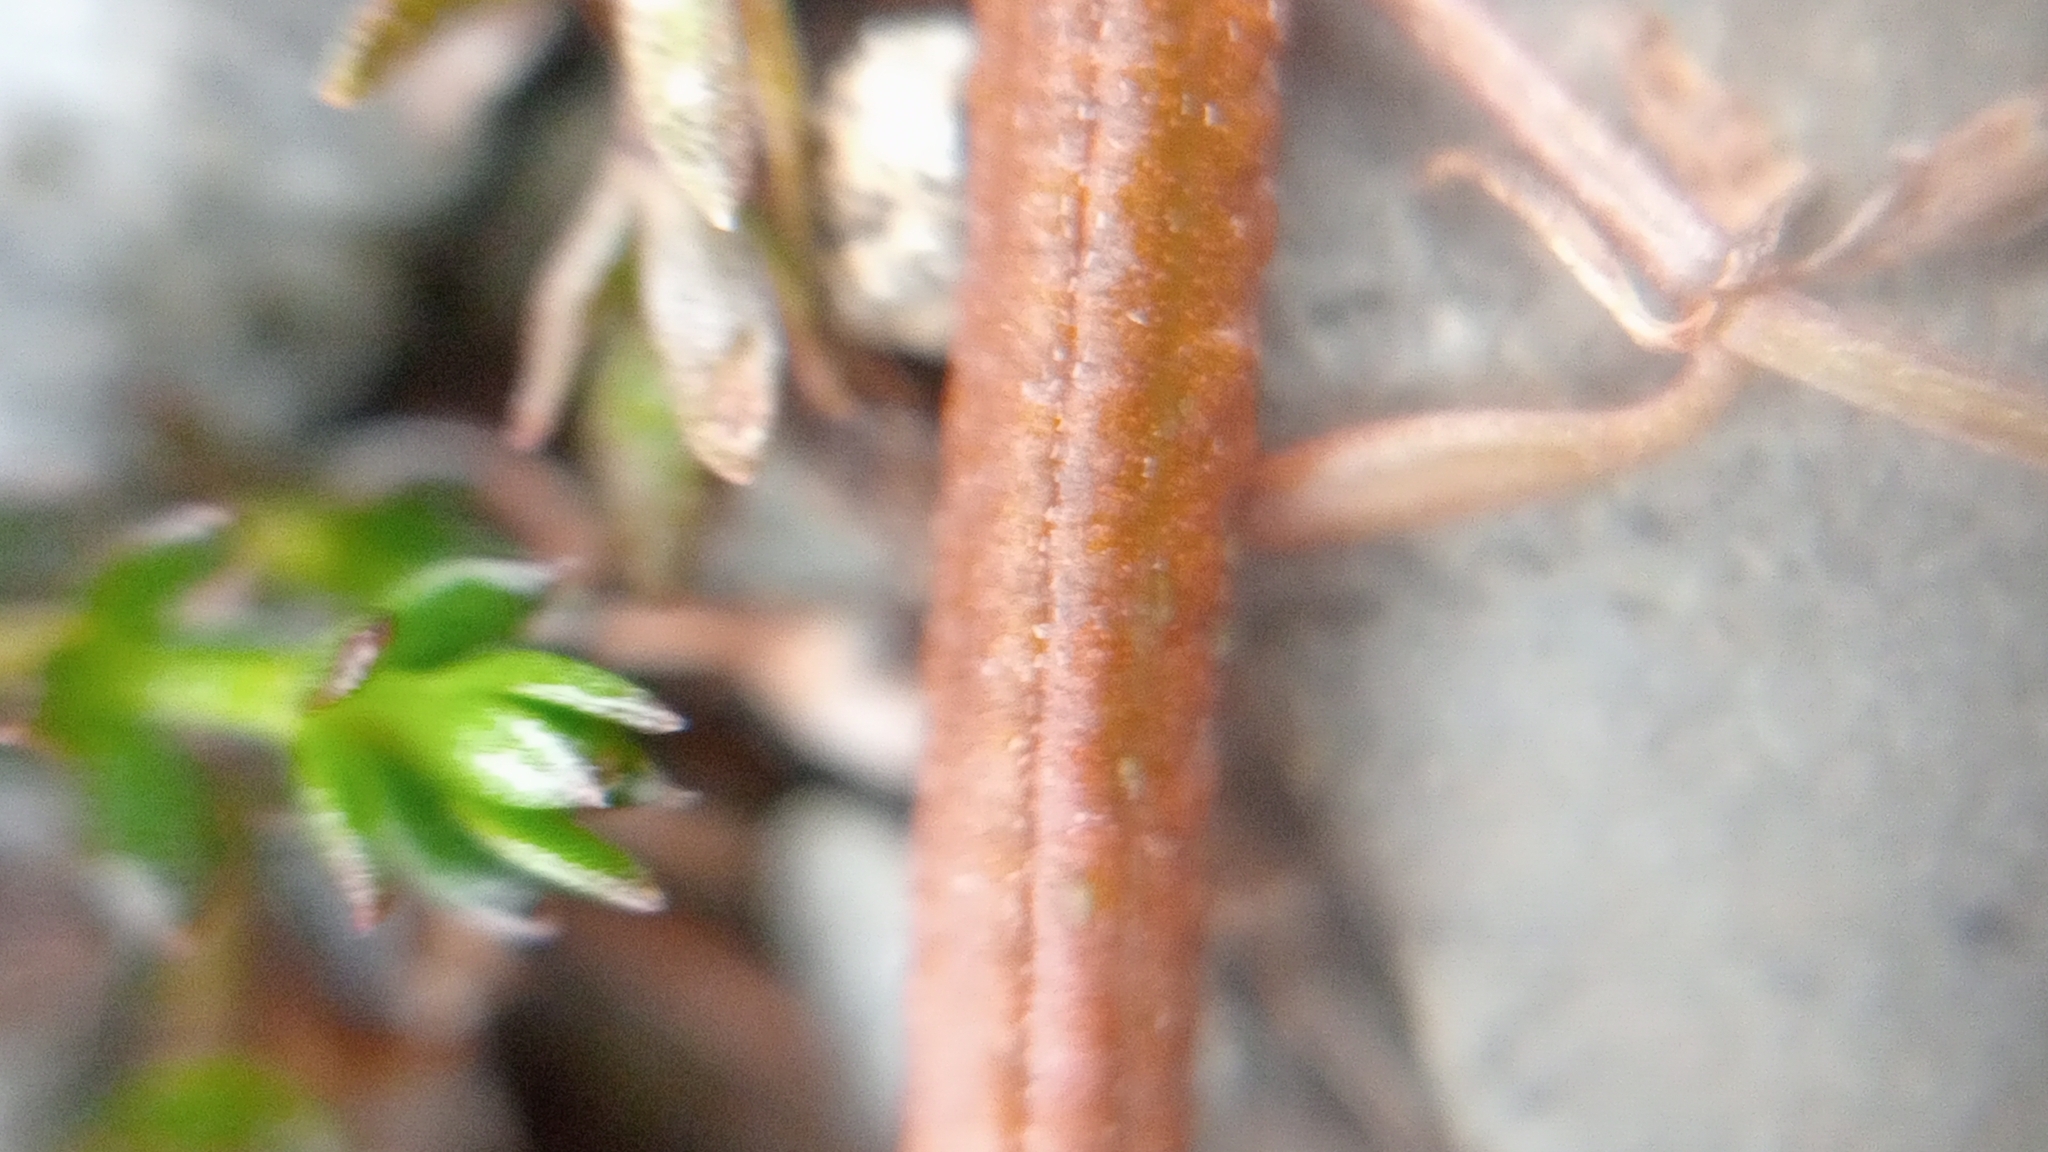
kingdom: Plantae
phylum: Tracheophyta
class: Magnoliopsida
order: Myrtales
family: Onagraceae
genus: Epilobium
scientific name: Epilobium komarovianum
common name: Bronzy willowherb
